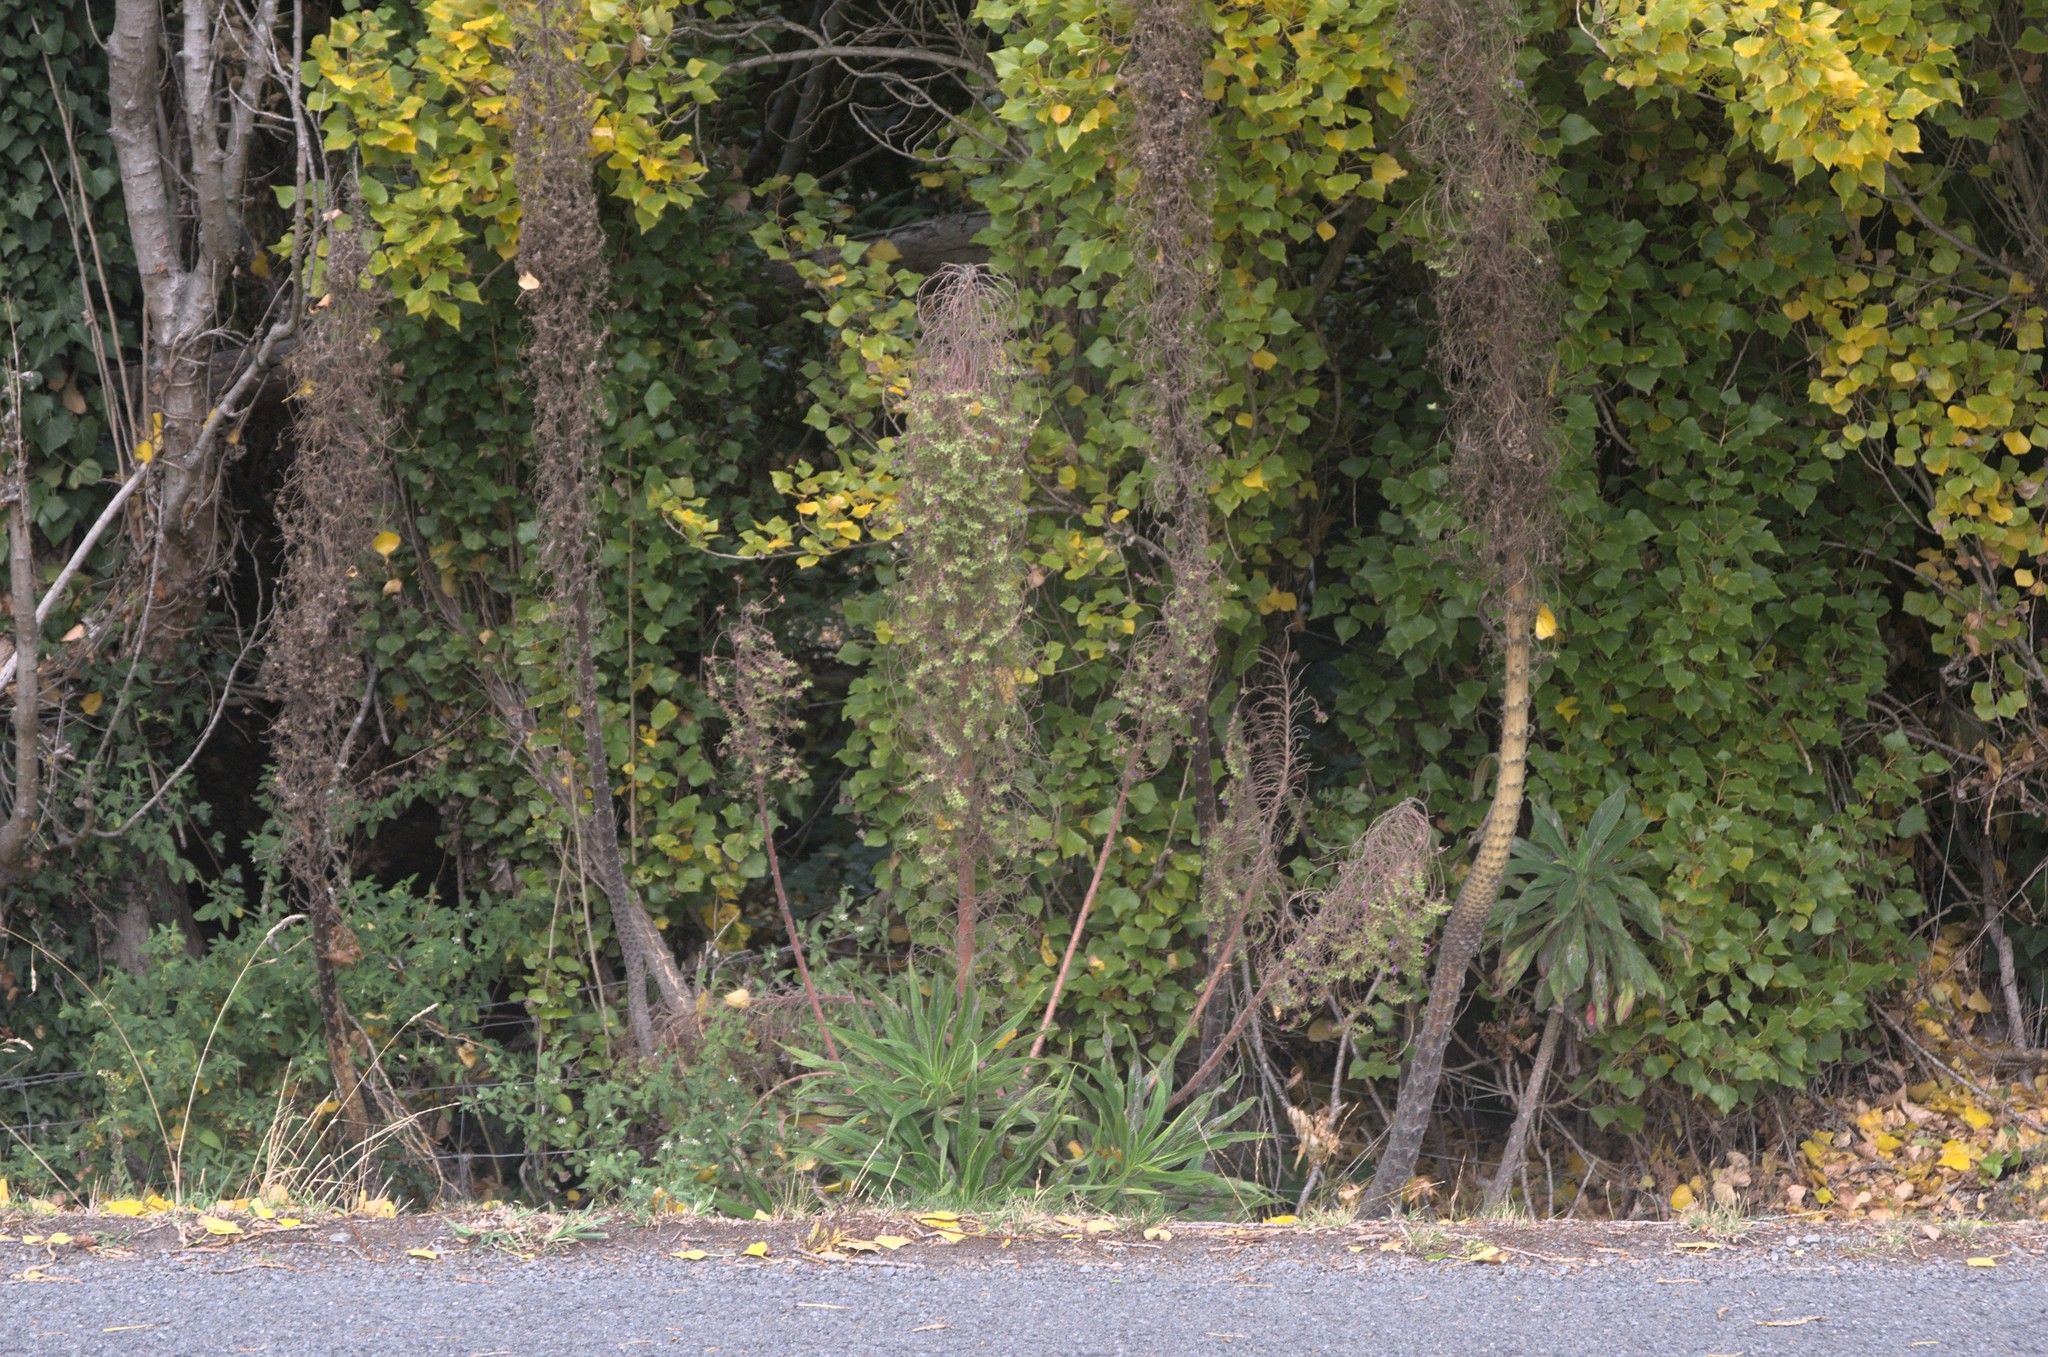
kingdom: Plantae
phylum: Tracheophyta
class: Magnoliopsida
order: Boraginales
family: Boraginaceae
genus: Echium
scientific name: Echium pininana
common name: Giant viper's-bugloss
